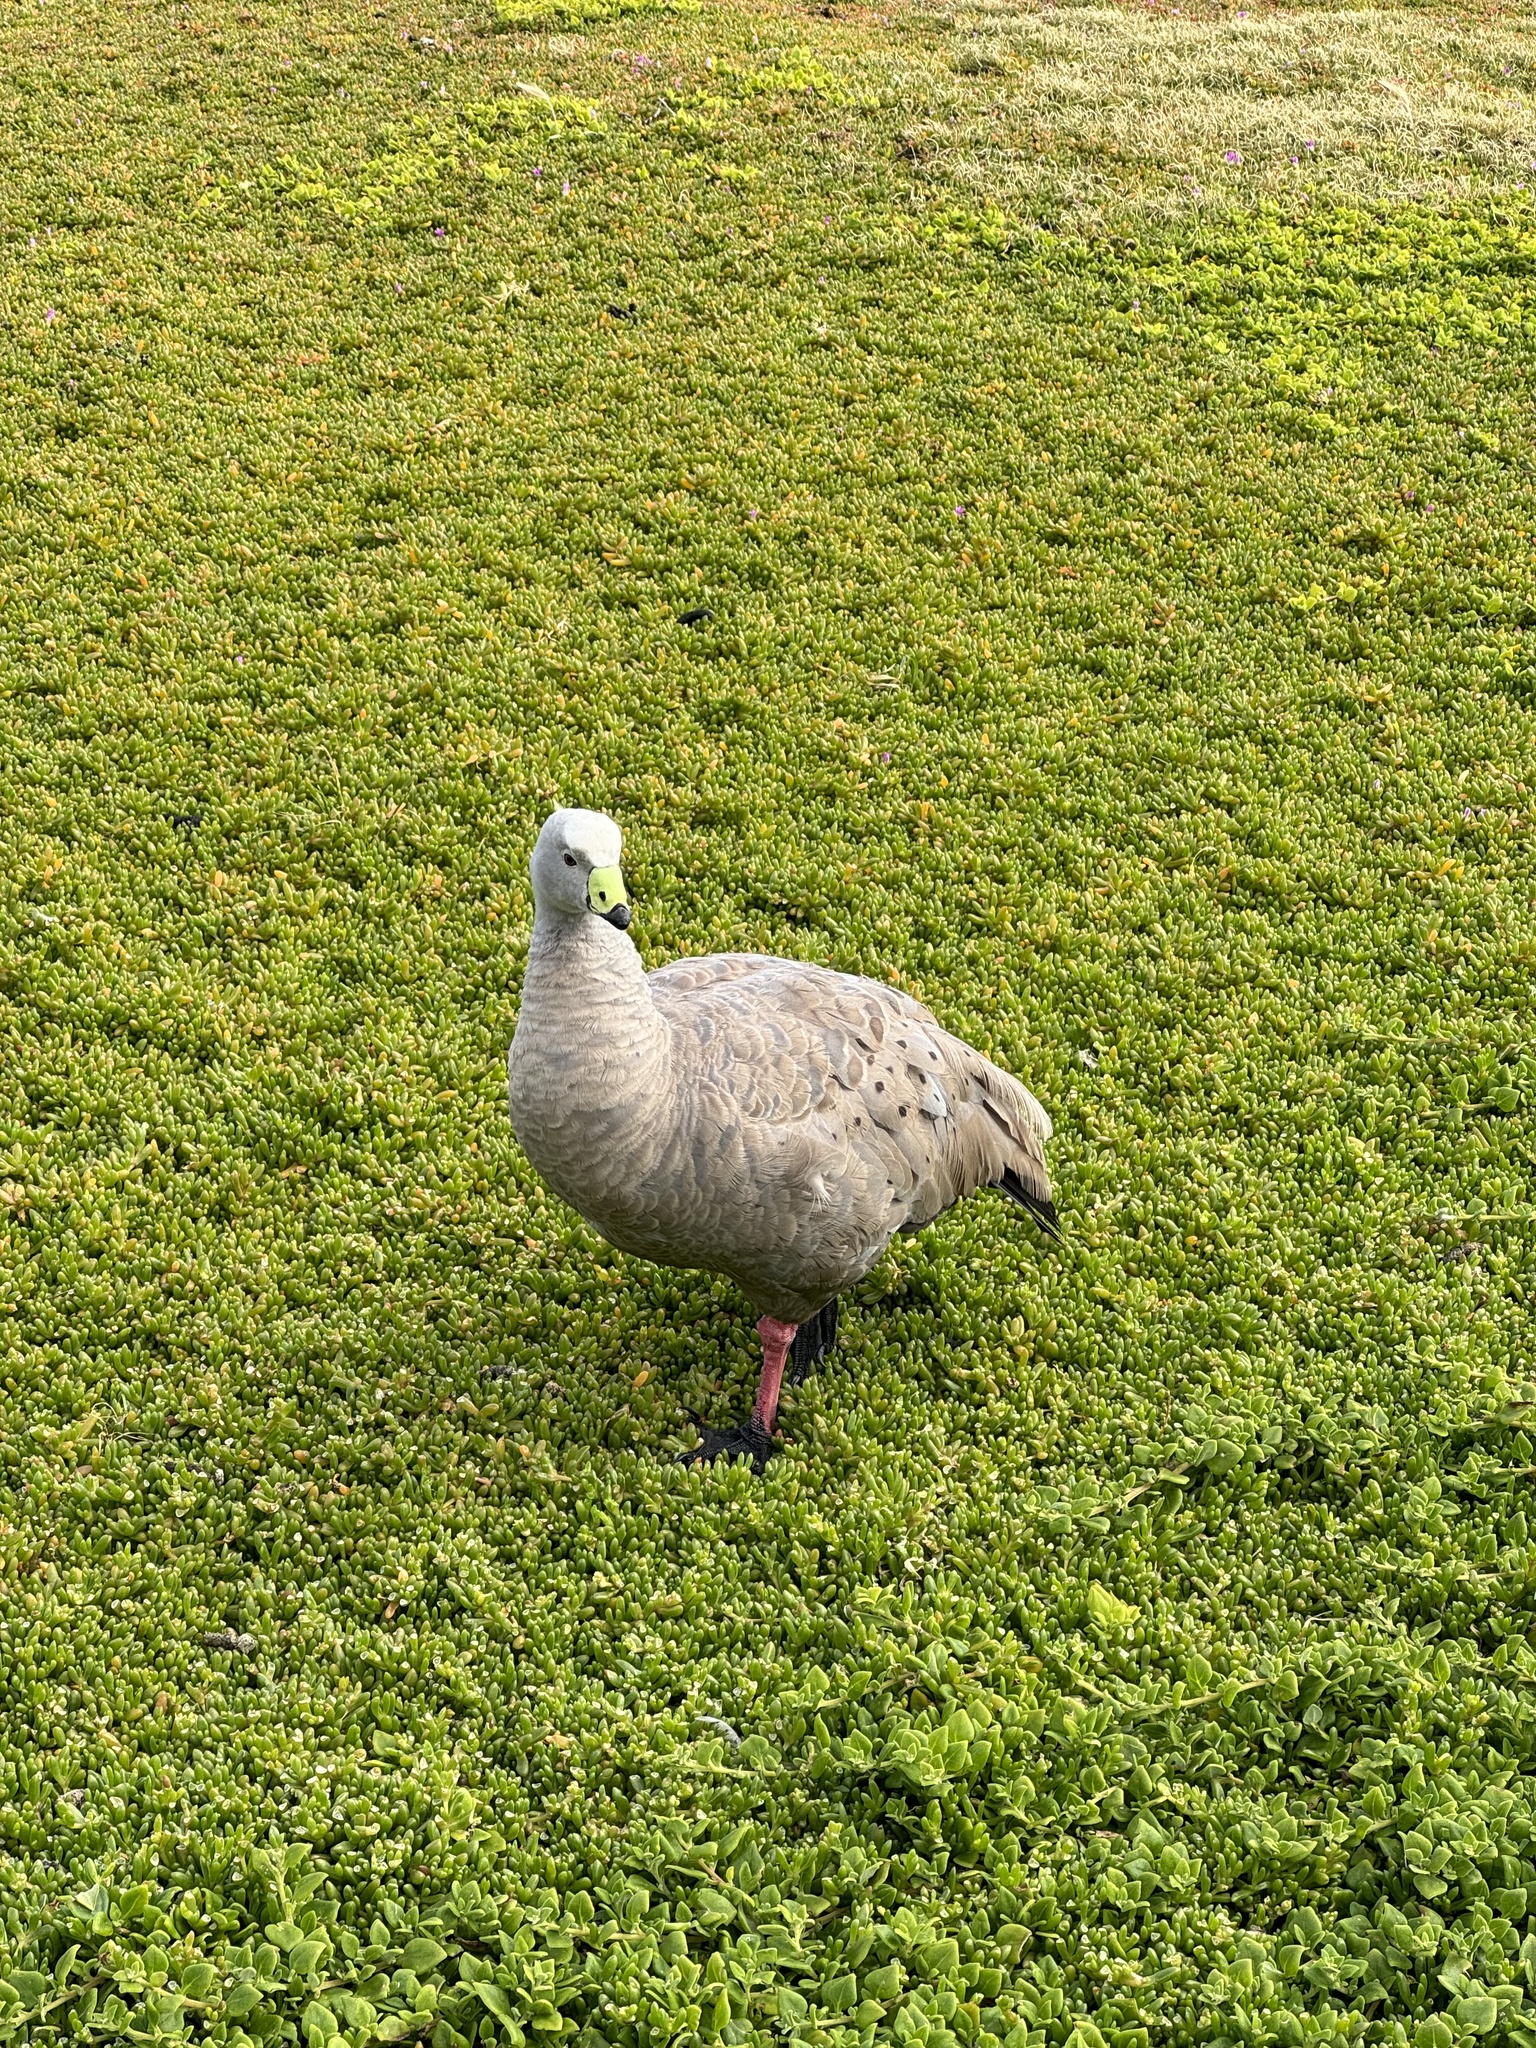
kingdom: Animalia
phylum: Chordata
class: Aves
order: Anseriformes
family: Anatidae
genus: Cereopsis
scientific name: Cereopsis novaehollandiae
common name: Cape barren goose
